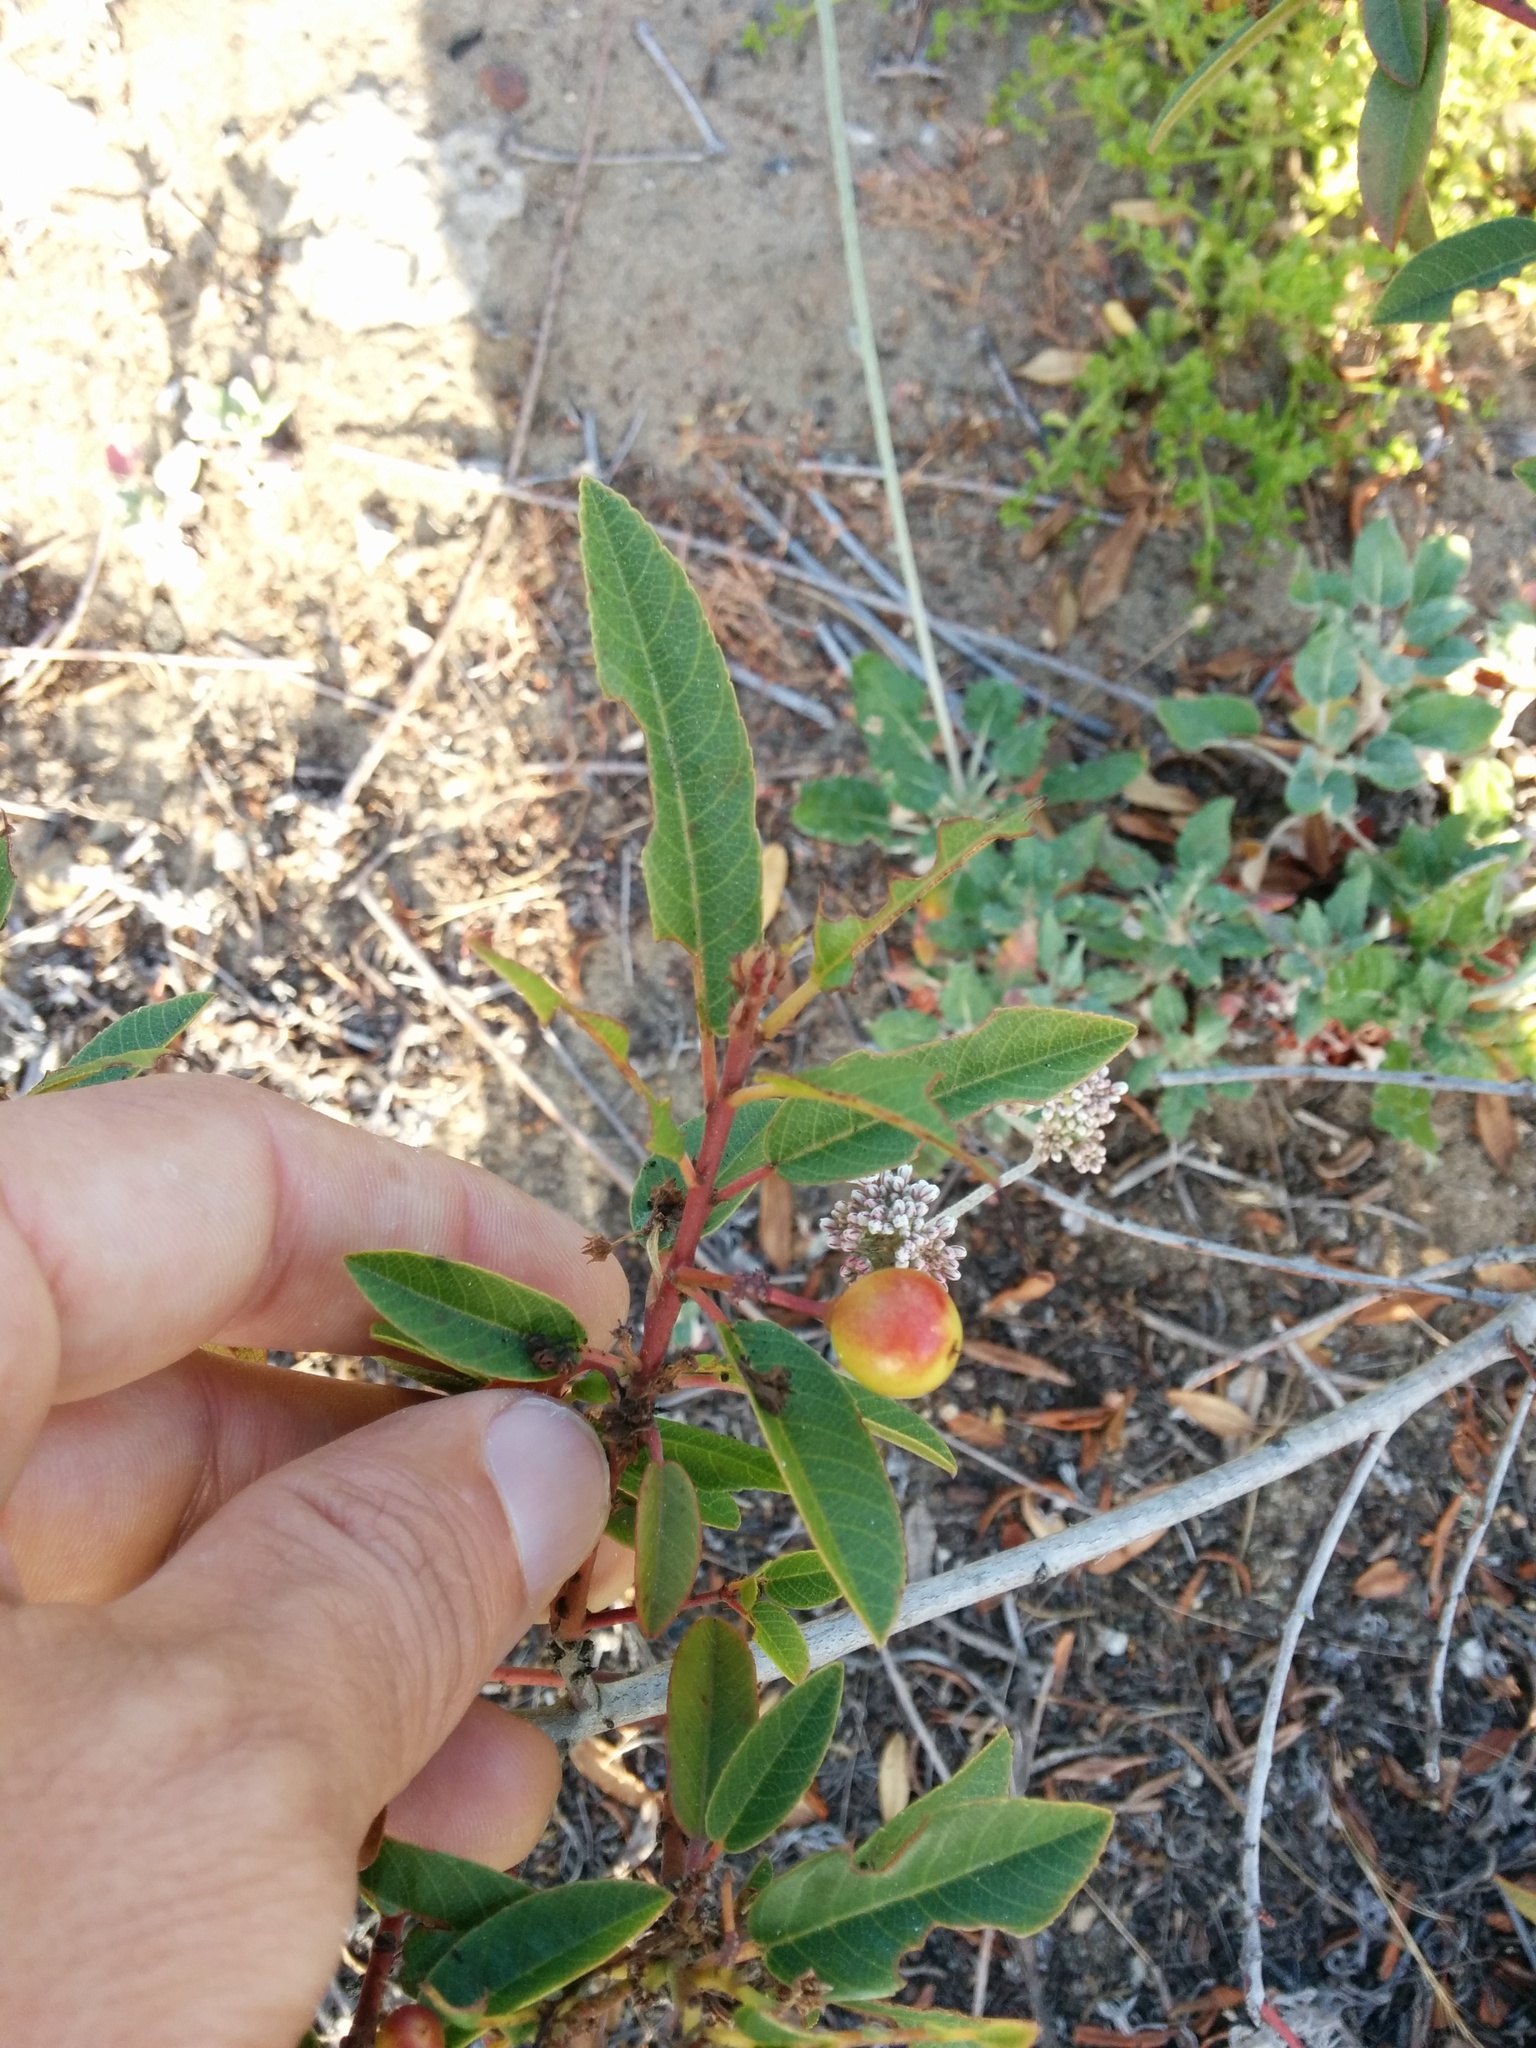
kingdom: Plantae
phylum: Tracheophyta
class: Magnoliopsida
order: Rosales
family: Rhamnaceae
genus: Frangula
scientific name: Frangula californica
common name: California buckthorn
